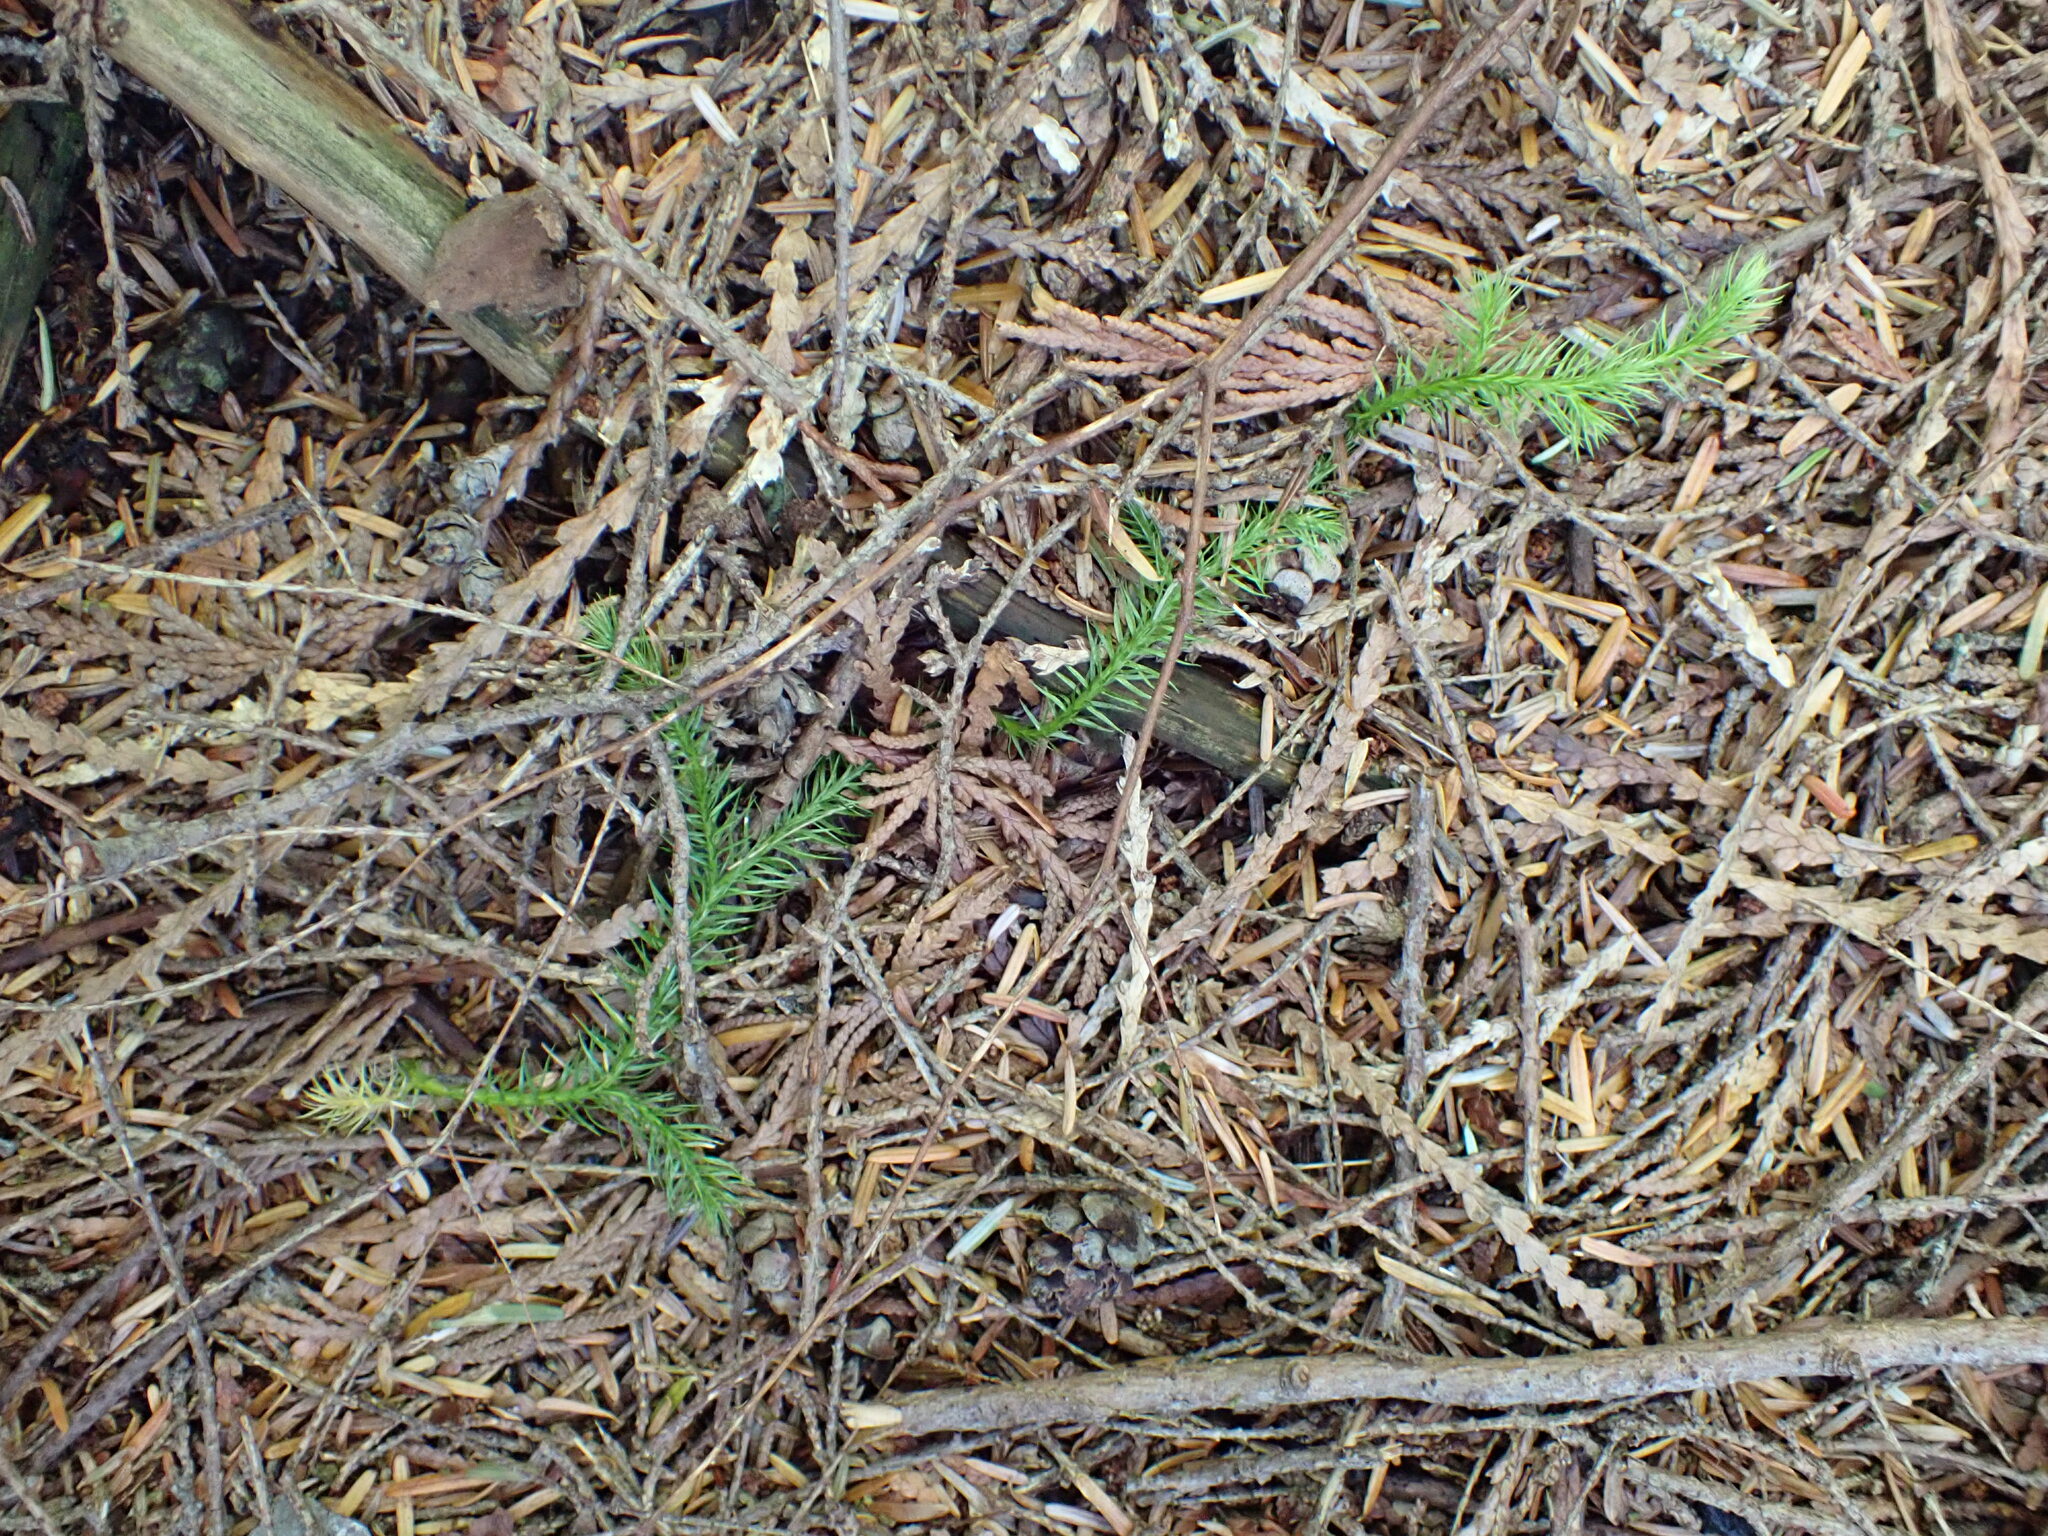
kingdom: Plantae
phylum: Tracheophyta
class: Lycopodiopsida
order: Lycopodiales
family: Lycopodiaceae
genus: Lycopodium
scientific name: Lycopodium clavatum
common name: Stag's-horn clubmoss
